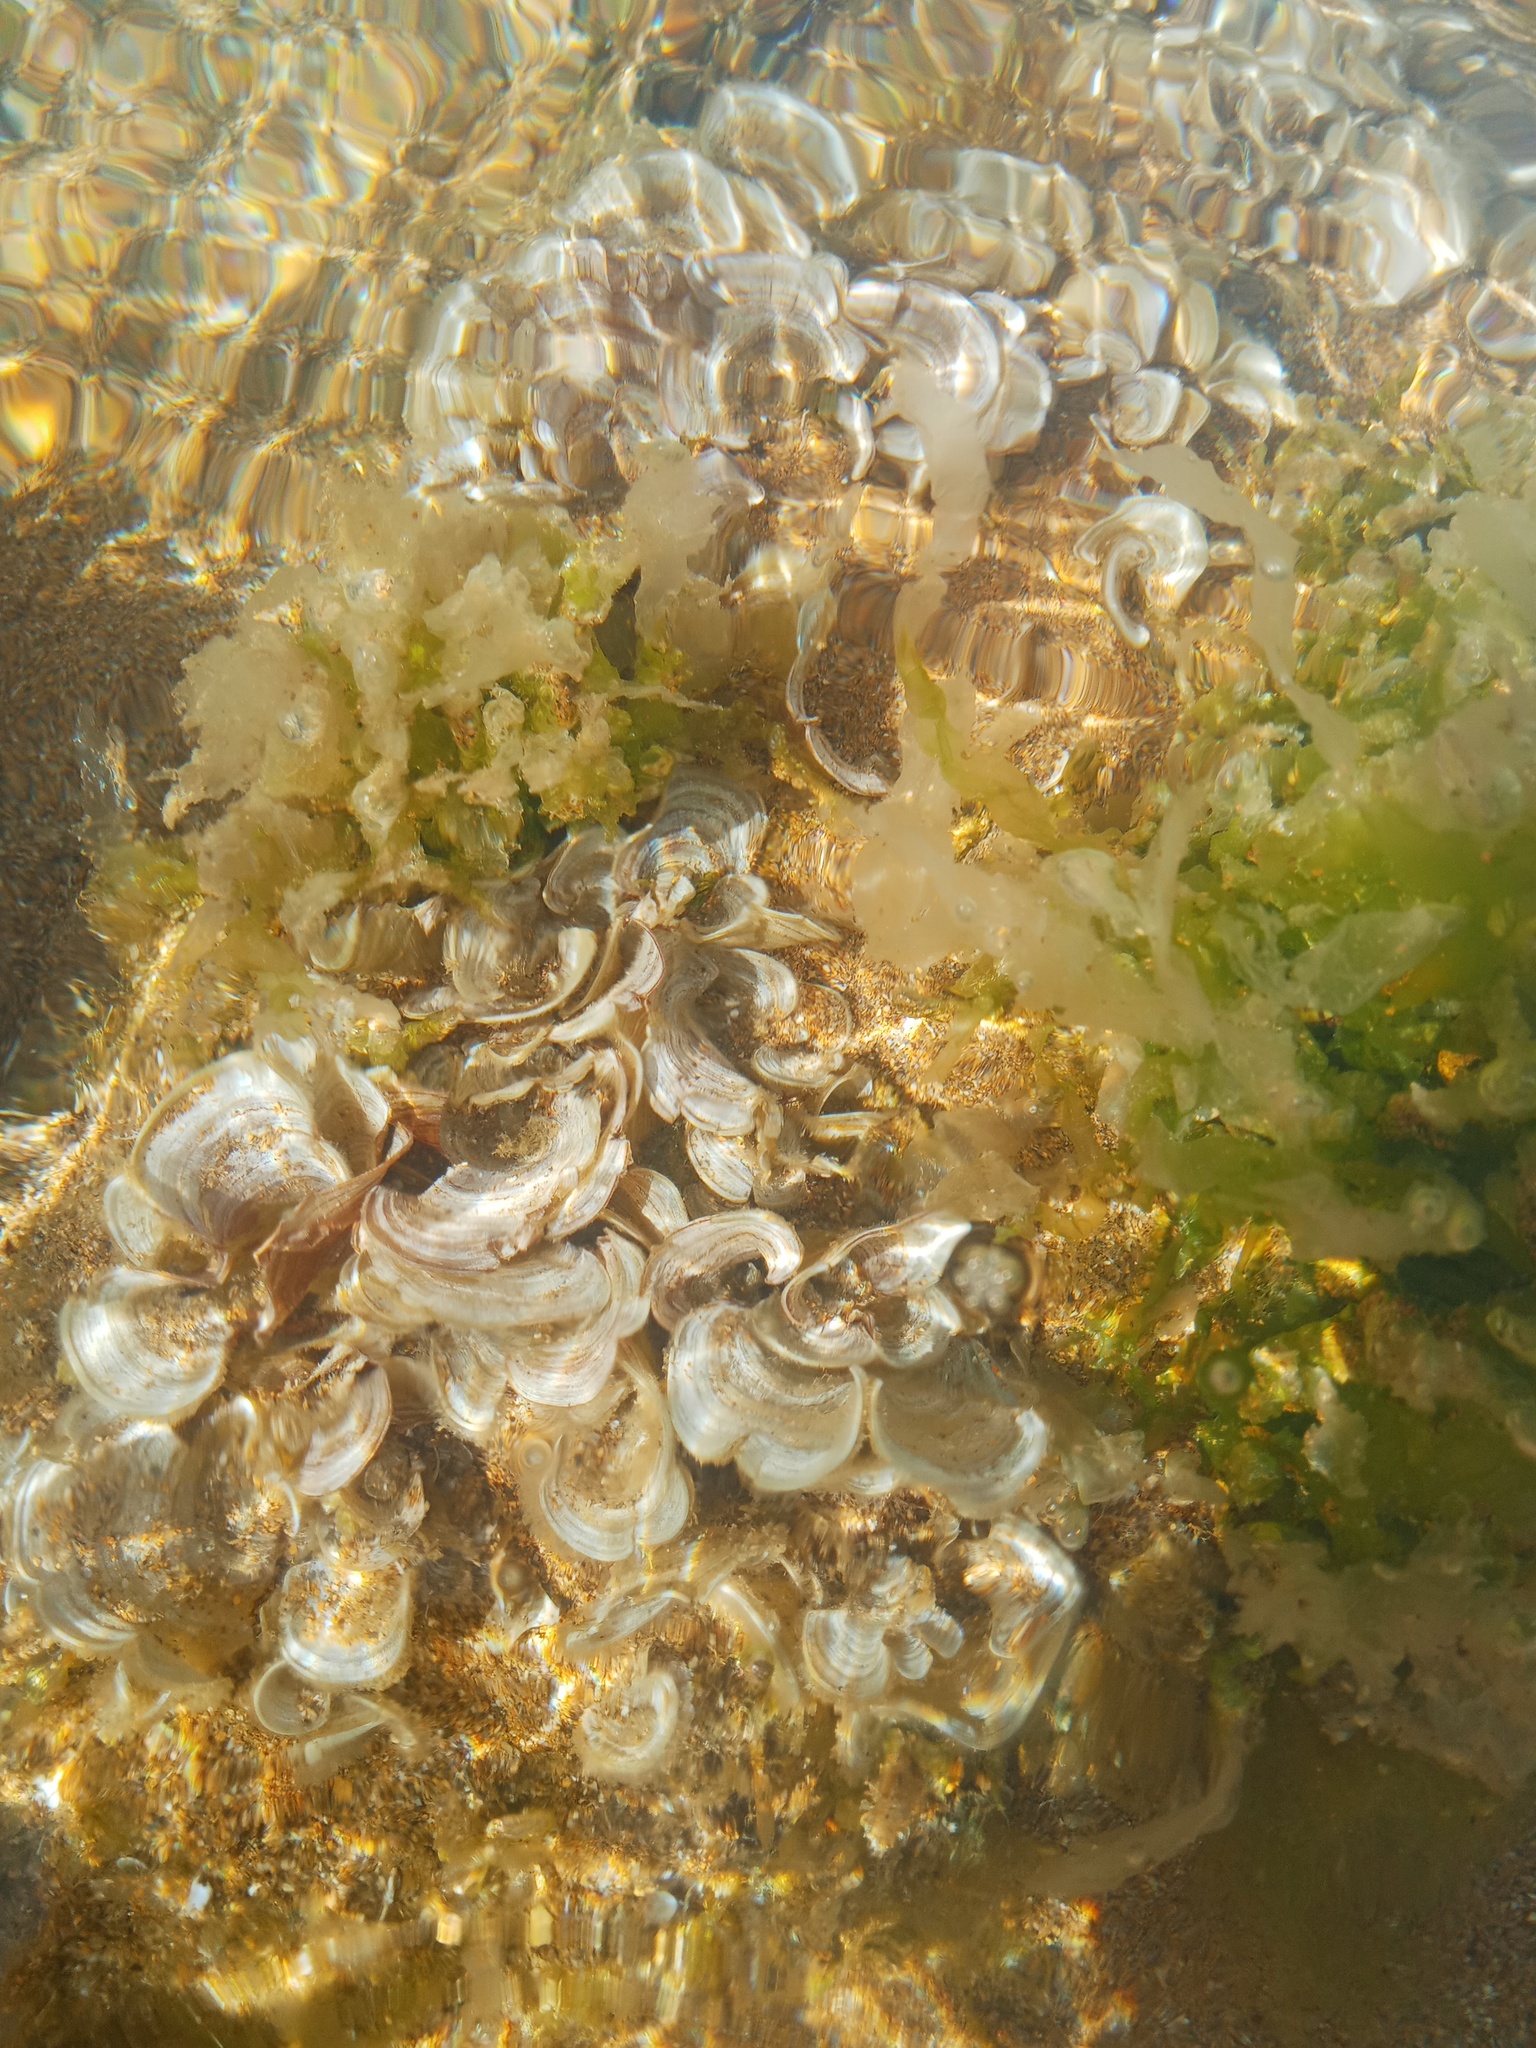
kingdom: Chromista
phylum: Ochrophyta
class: Phaeophyceae
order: Dictyotales
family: Dictyotaceae
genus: Padina
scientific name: Padina
